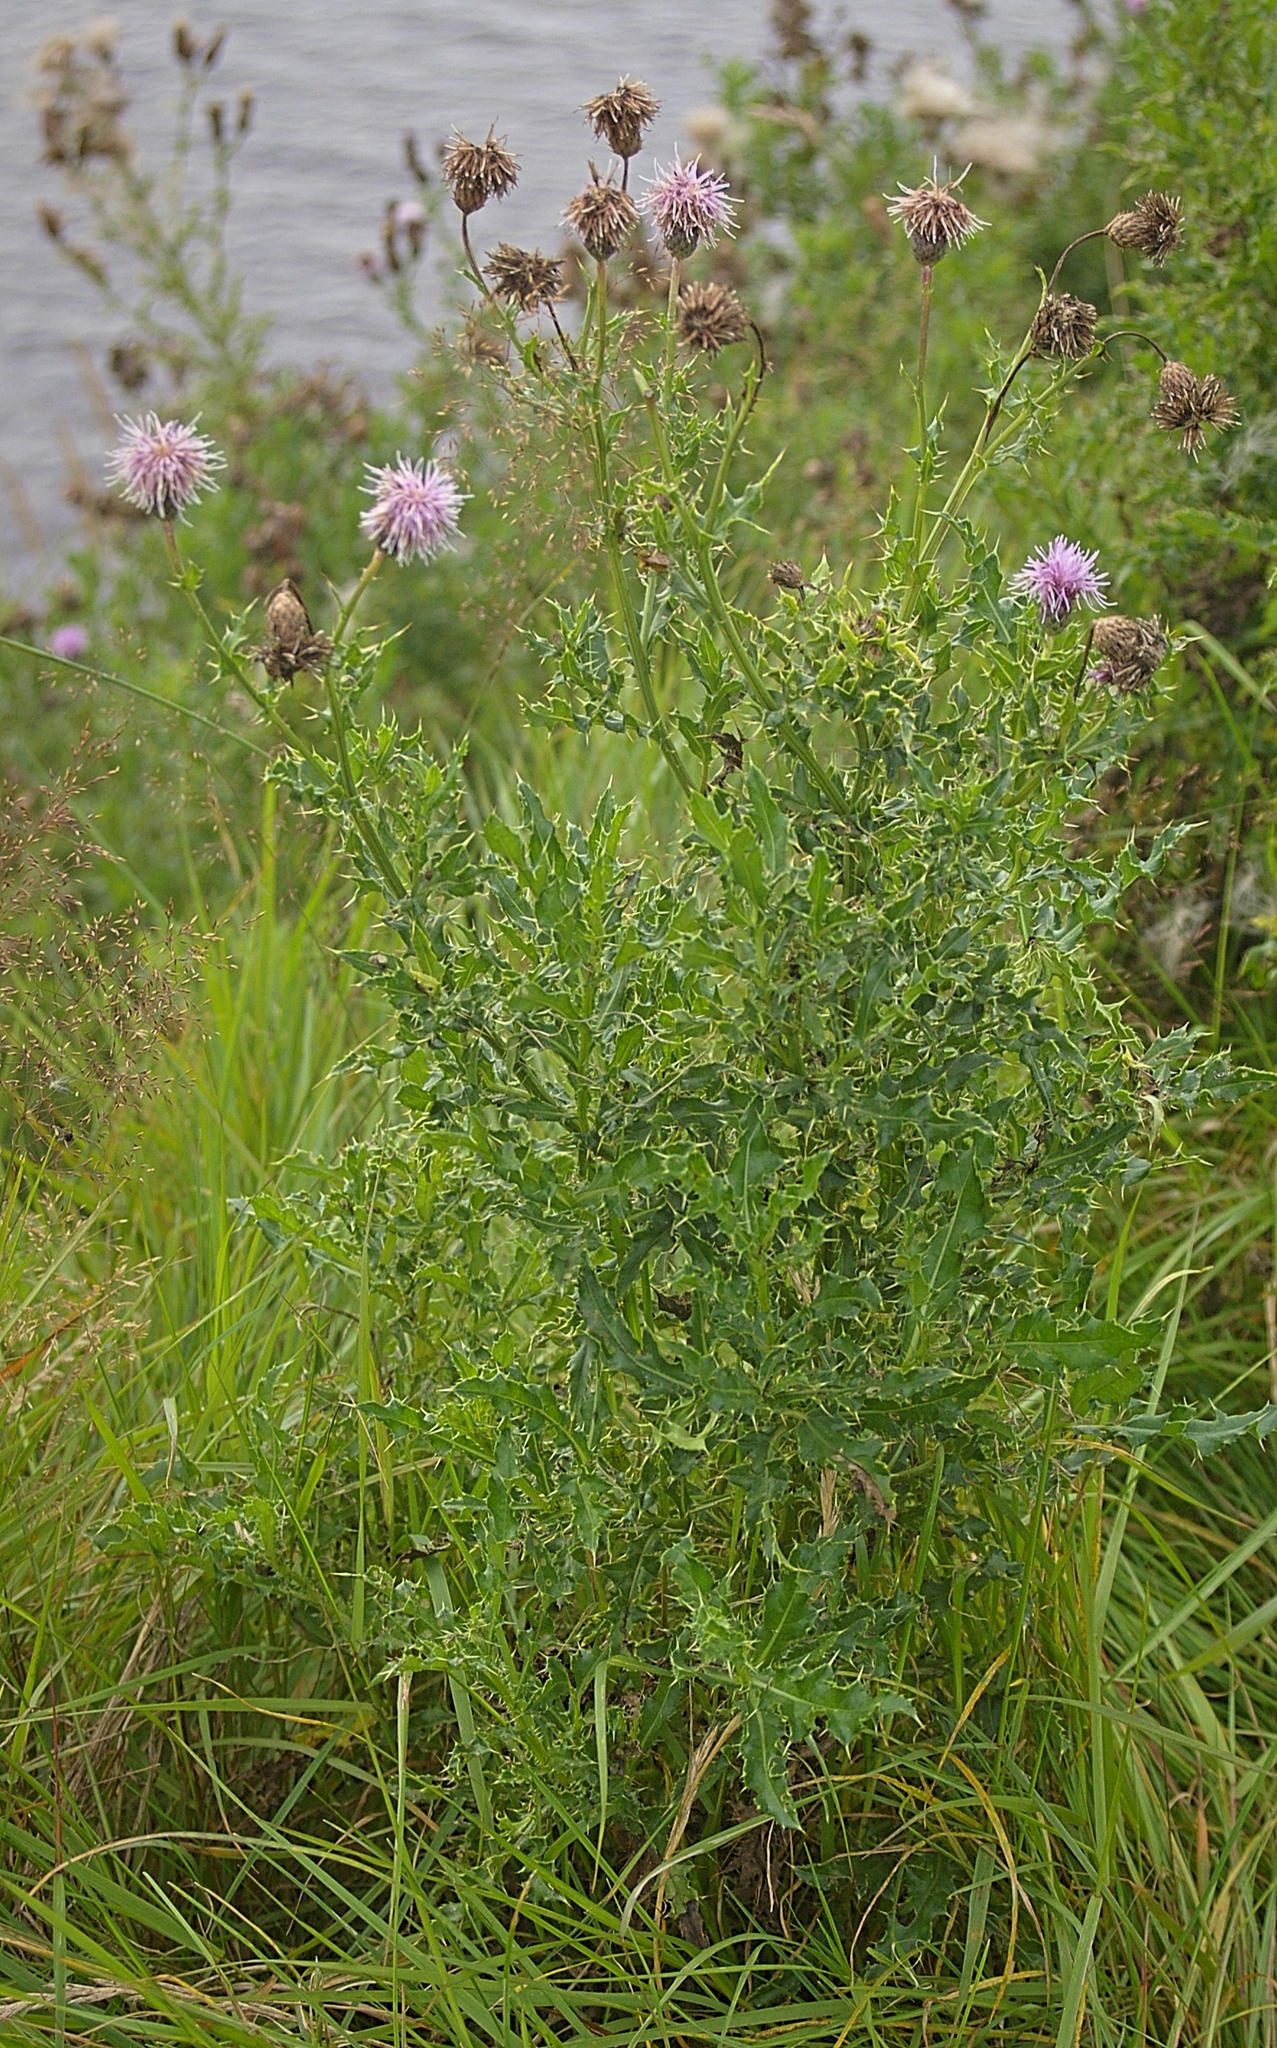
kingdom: Plantae
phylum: Tracheophyta
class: Magnoliopsida
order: Asterales
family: Asteraceae
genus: Cirsium
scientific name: Cirsium arvense
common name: Creeping thistle
